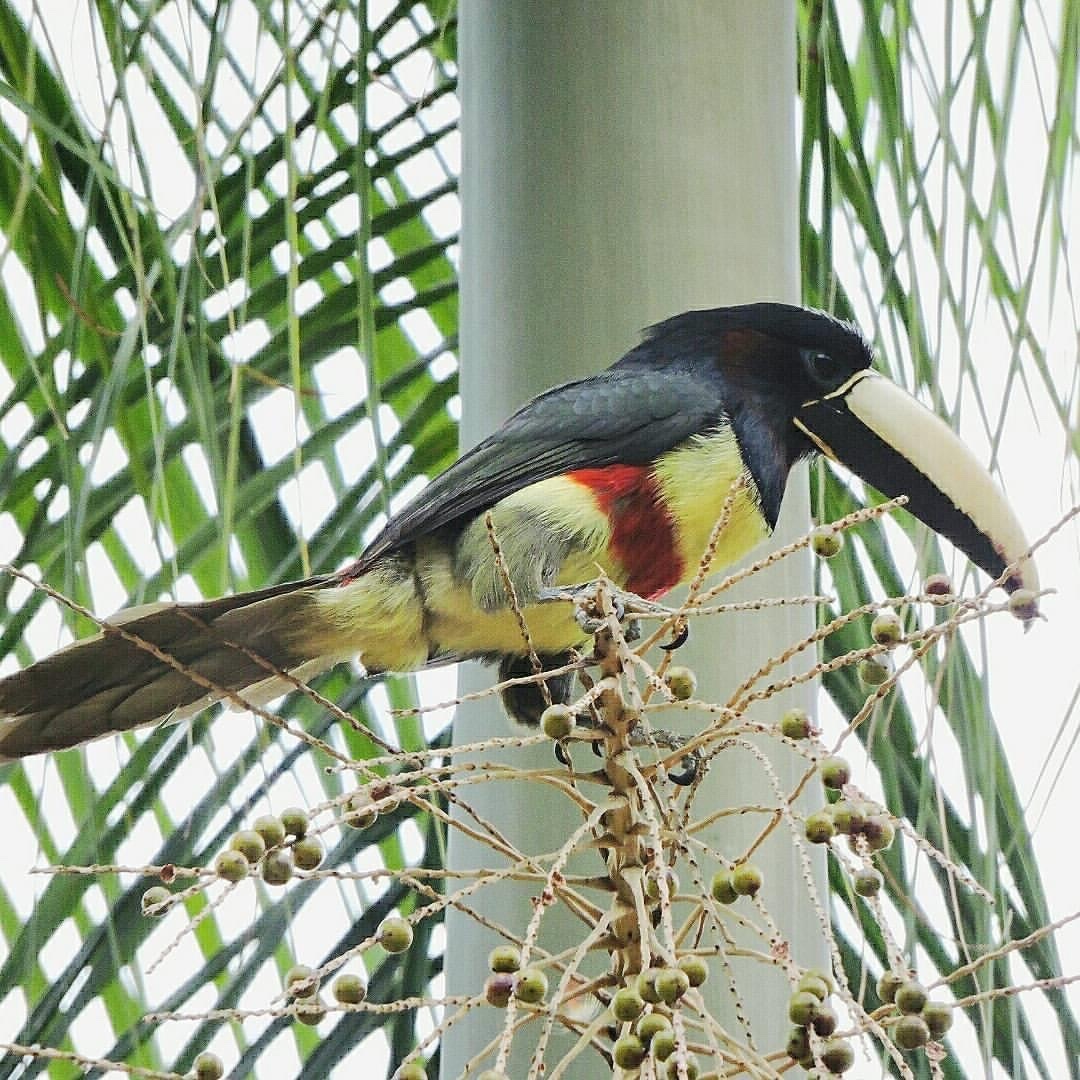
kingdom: Animalia
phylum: Chordata
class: Aves
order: Piciformes
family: Ramphastidae
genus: Pteroglossus
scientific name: Pteroglossus aracari
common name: Black-necked aracari
